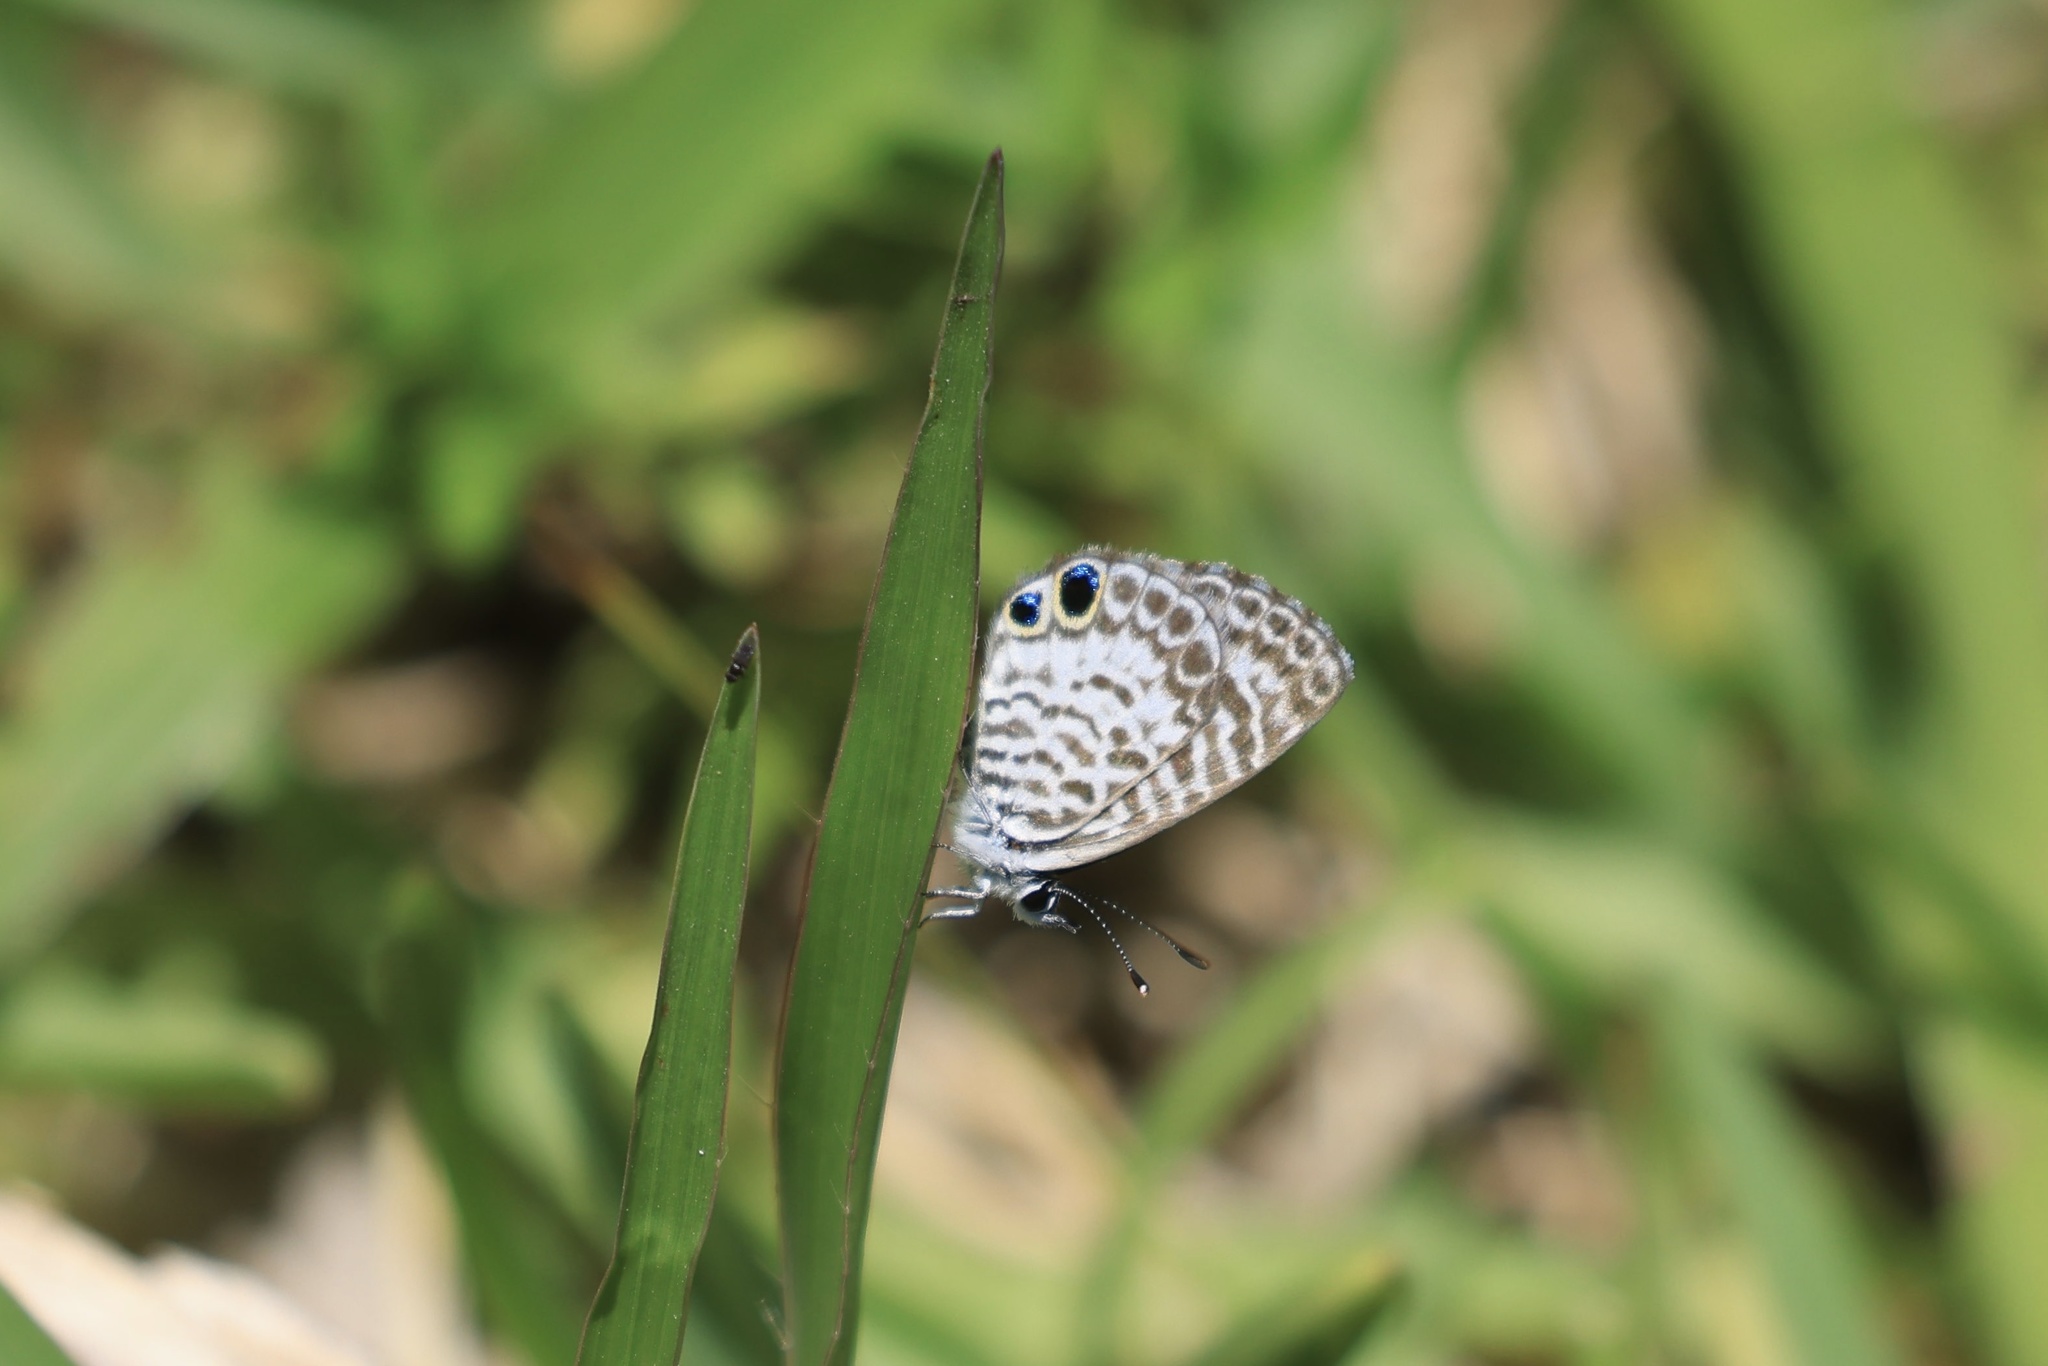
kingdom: Animalia
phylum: Arthropoda
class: Insecta
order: Lepidoptera
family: Lycaenidae
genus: Leptotes
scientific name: Leptotes cassius
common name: Cassius blue
